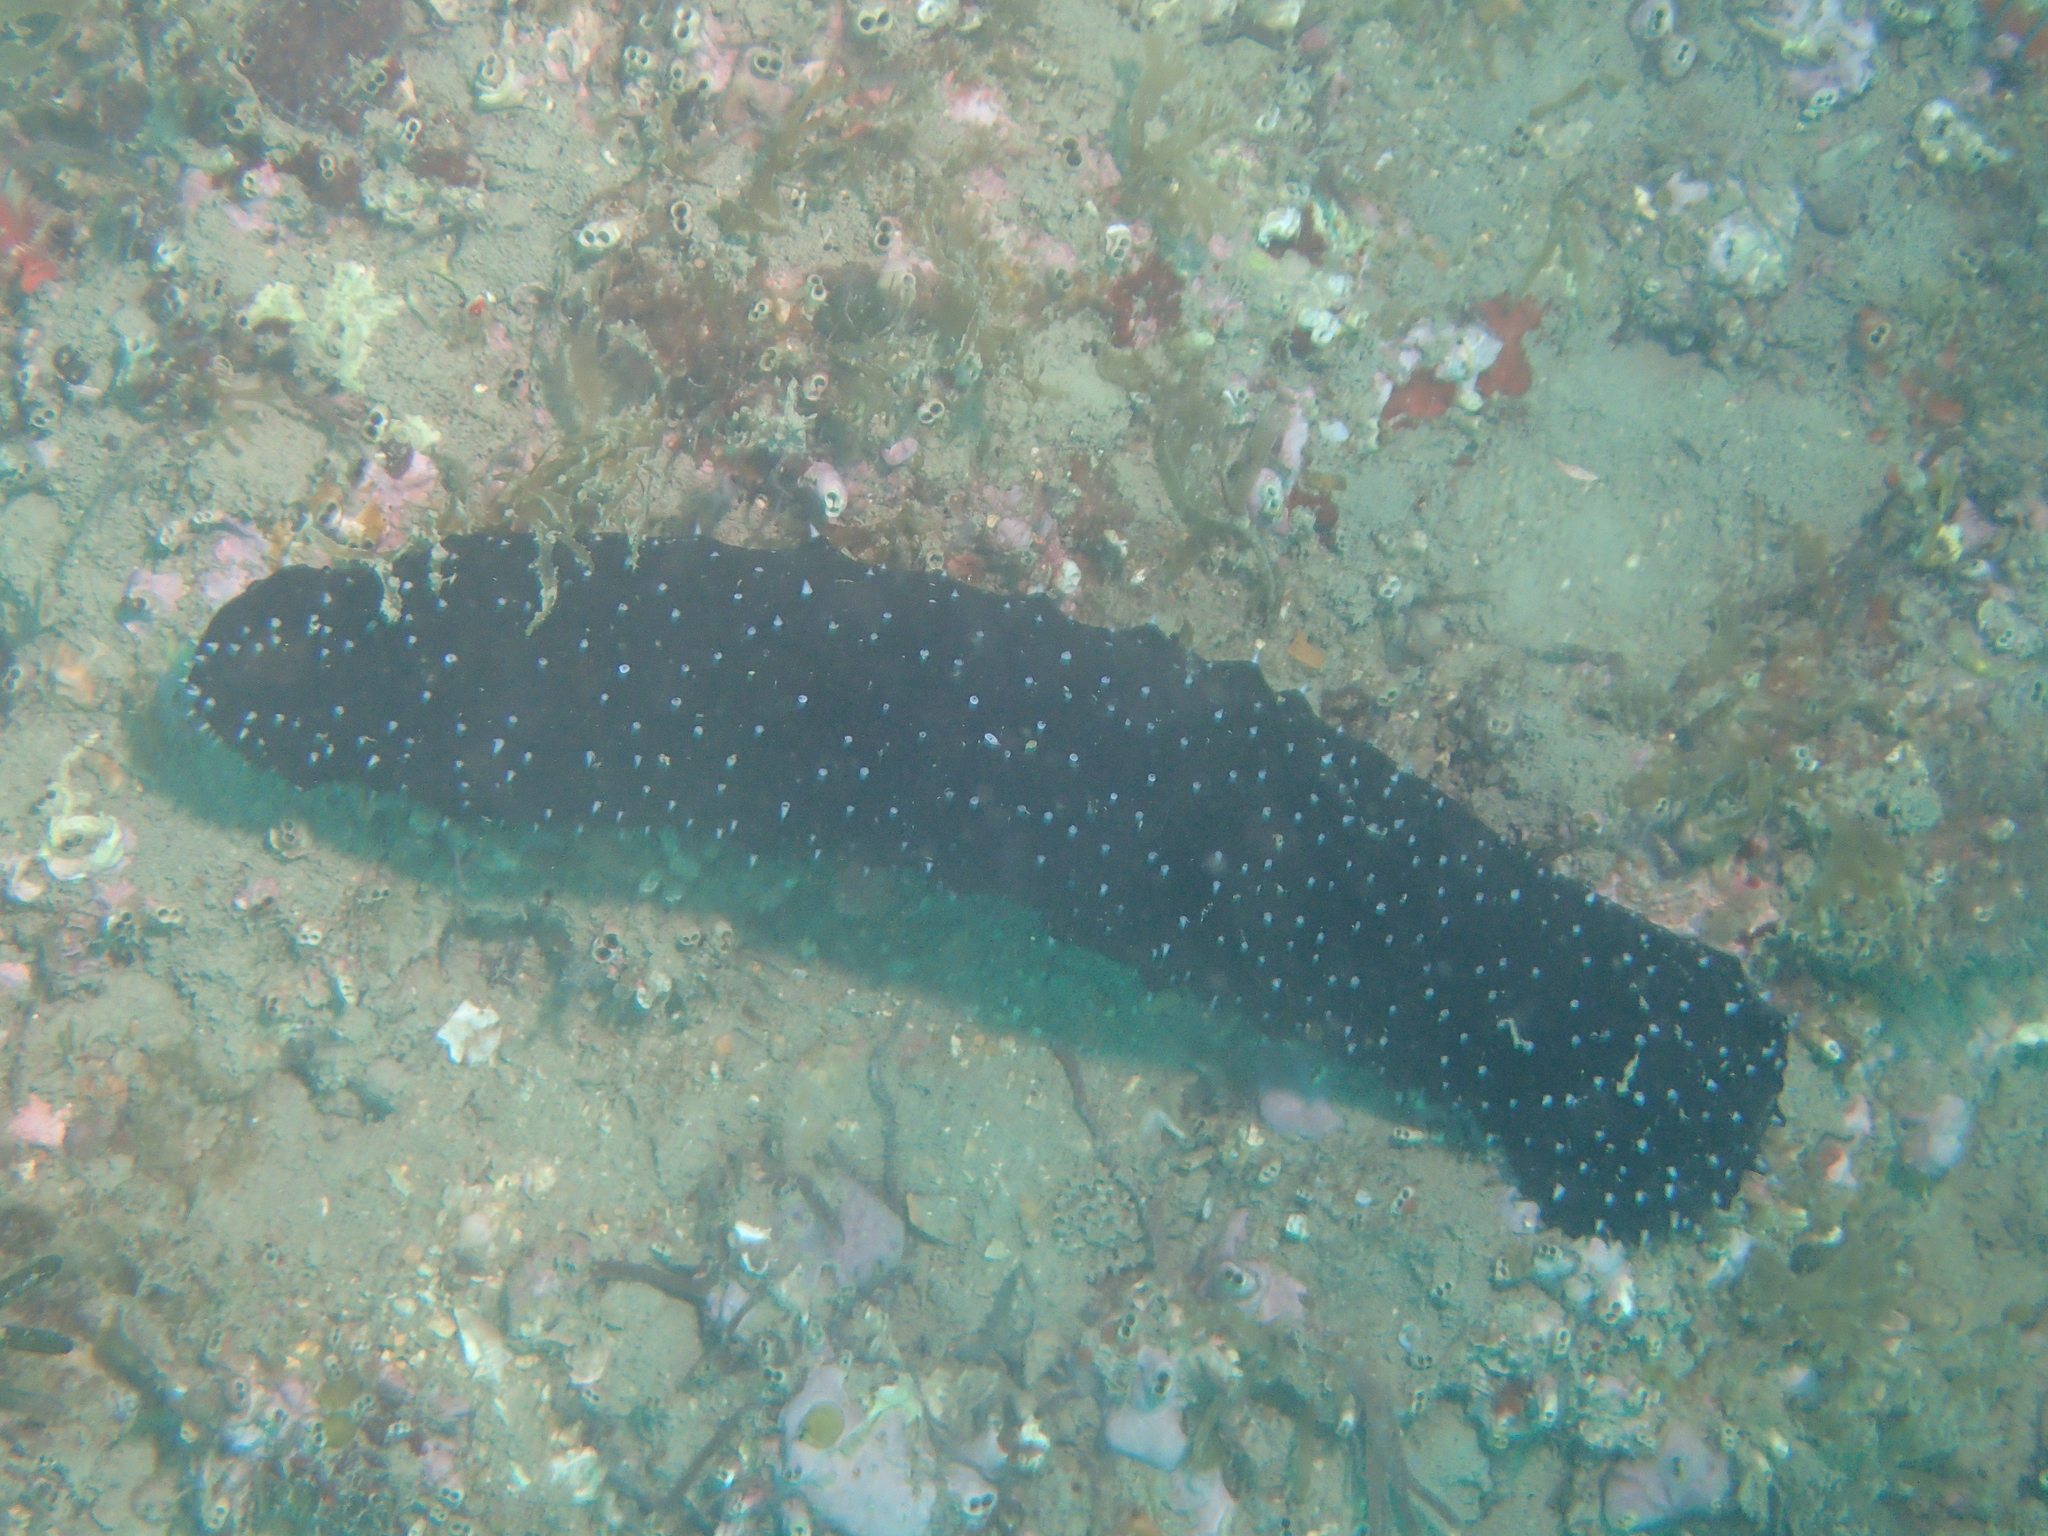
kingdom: Animalia
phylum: Echinodermata
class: Holothuroidea
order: Holothuriida
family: Holothuriidae
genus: Holothuria
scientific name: Holothuria forskali
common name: Black sea cucumber
